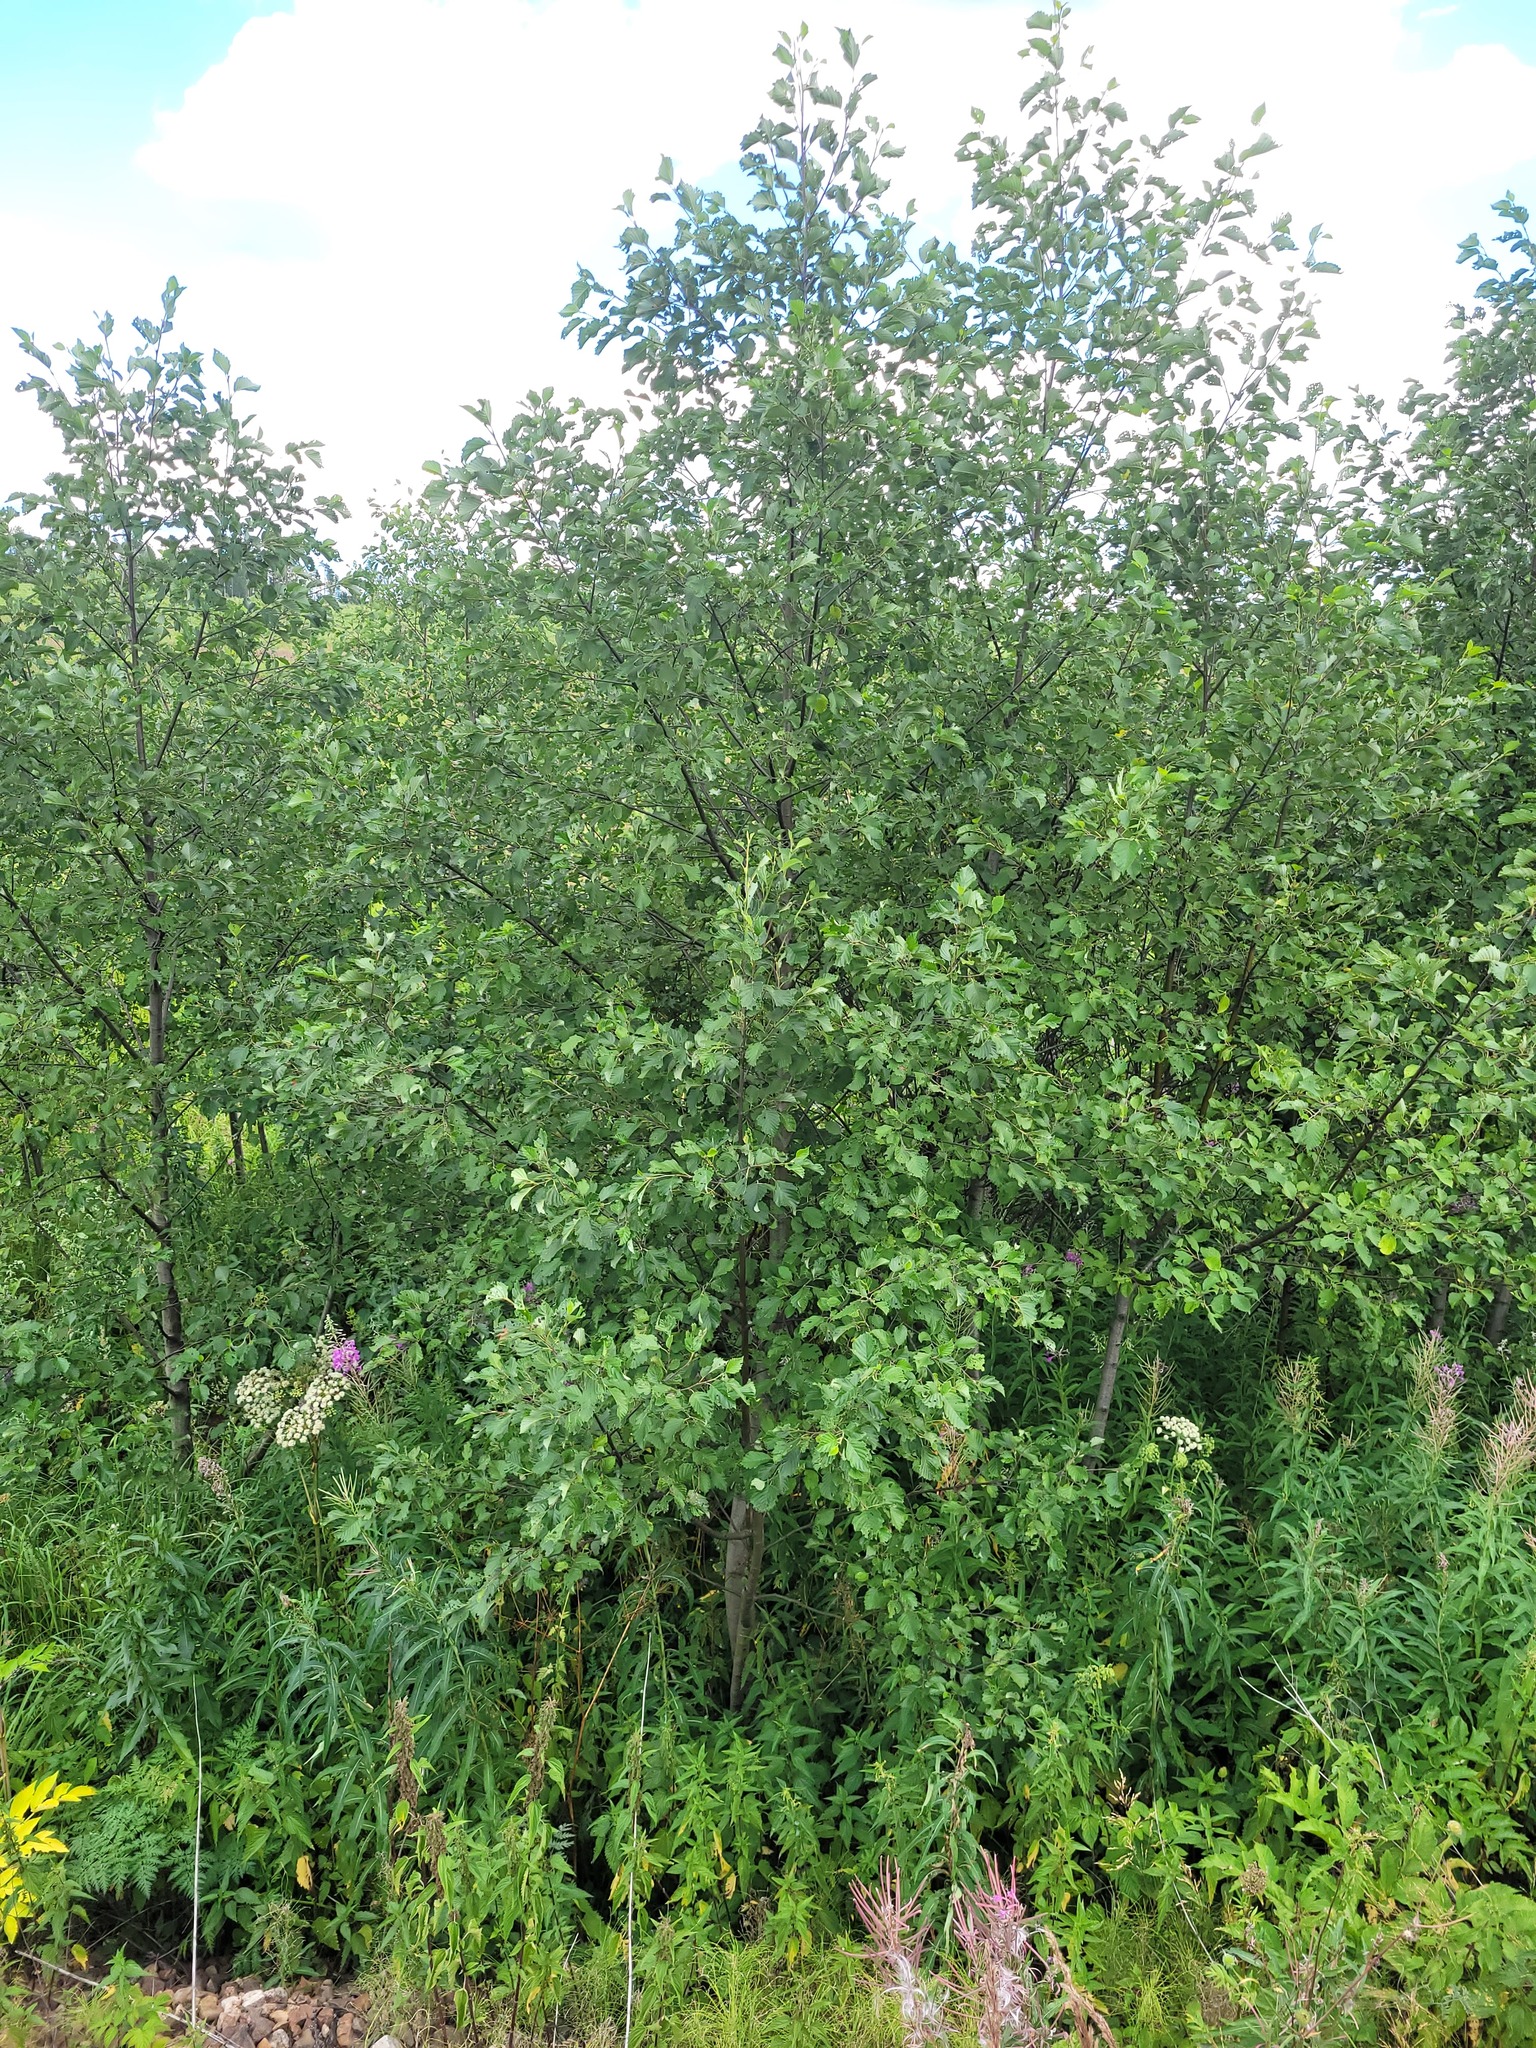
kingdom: Plantae
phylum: Tracheophyta
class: Magnoliopsida
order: Fagales
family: Betulaceae
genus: Alnus
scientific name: Alnus incana
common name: Grey alder
